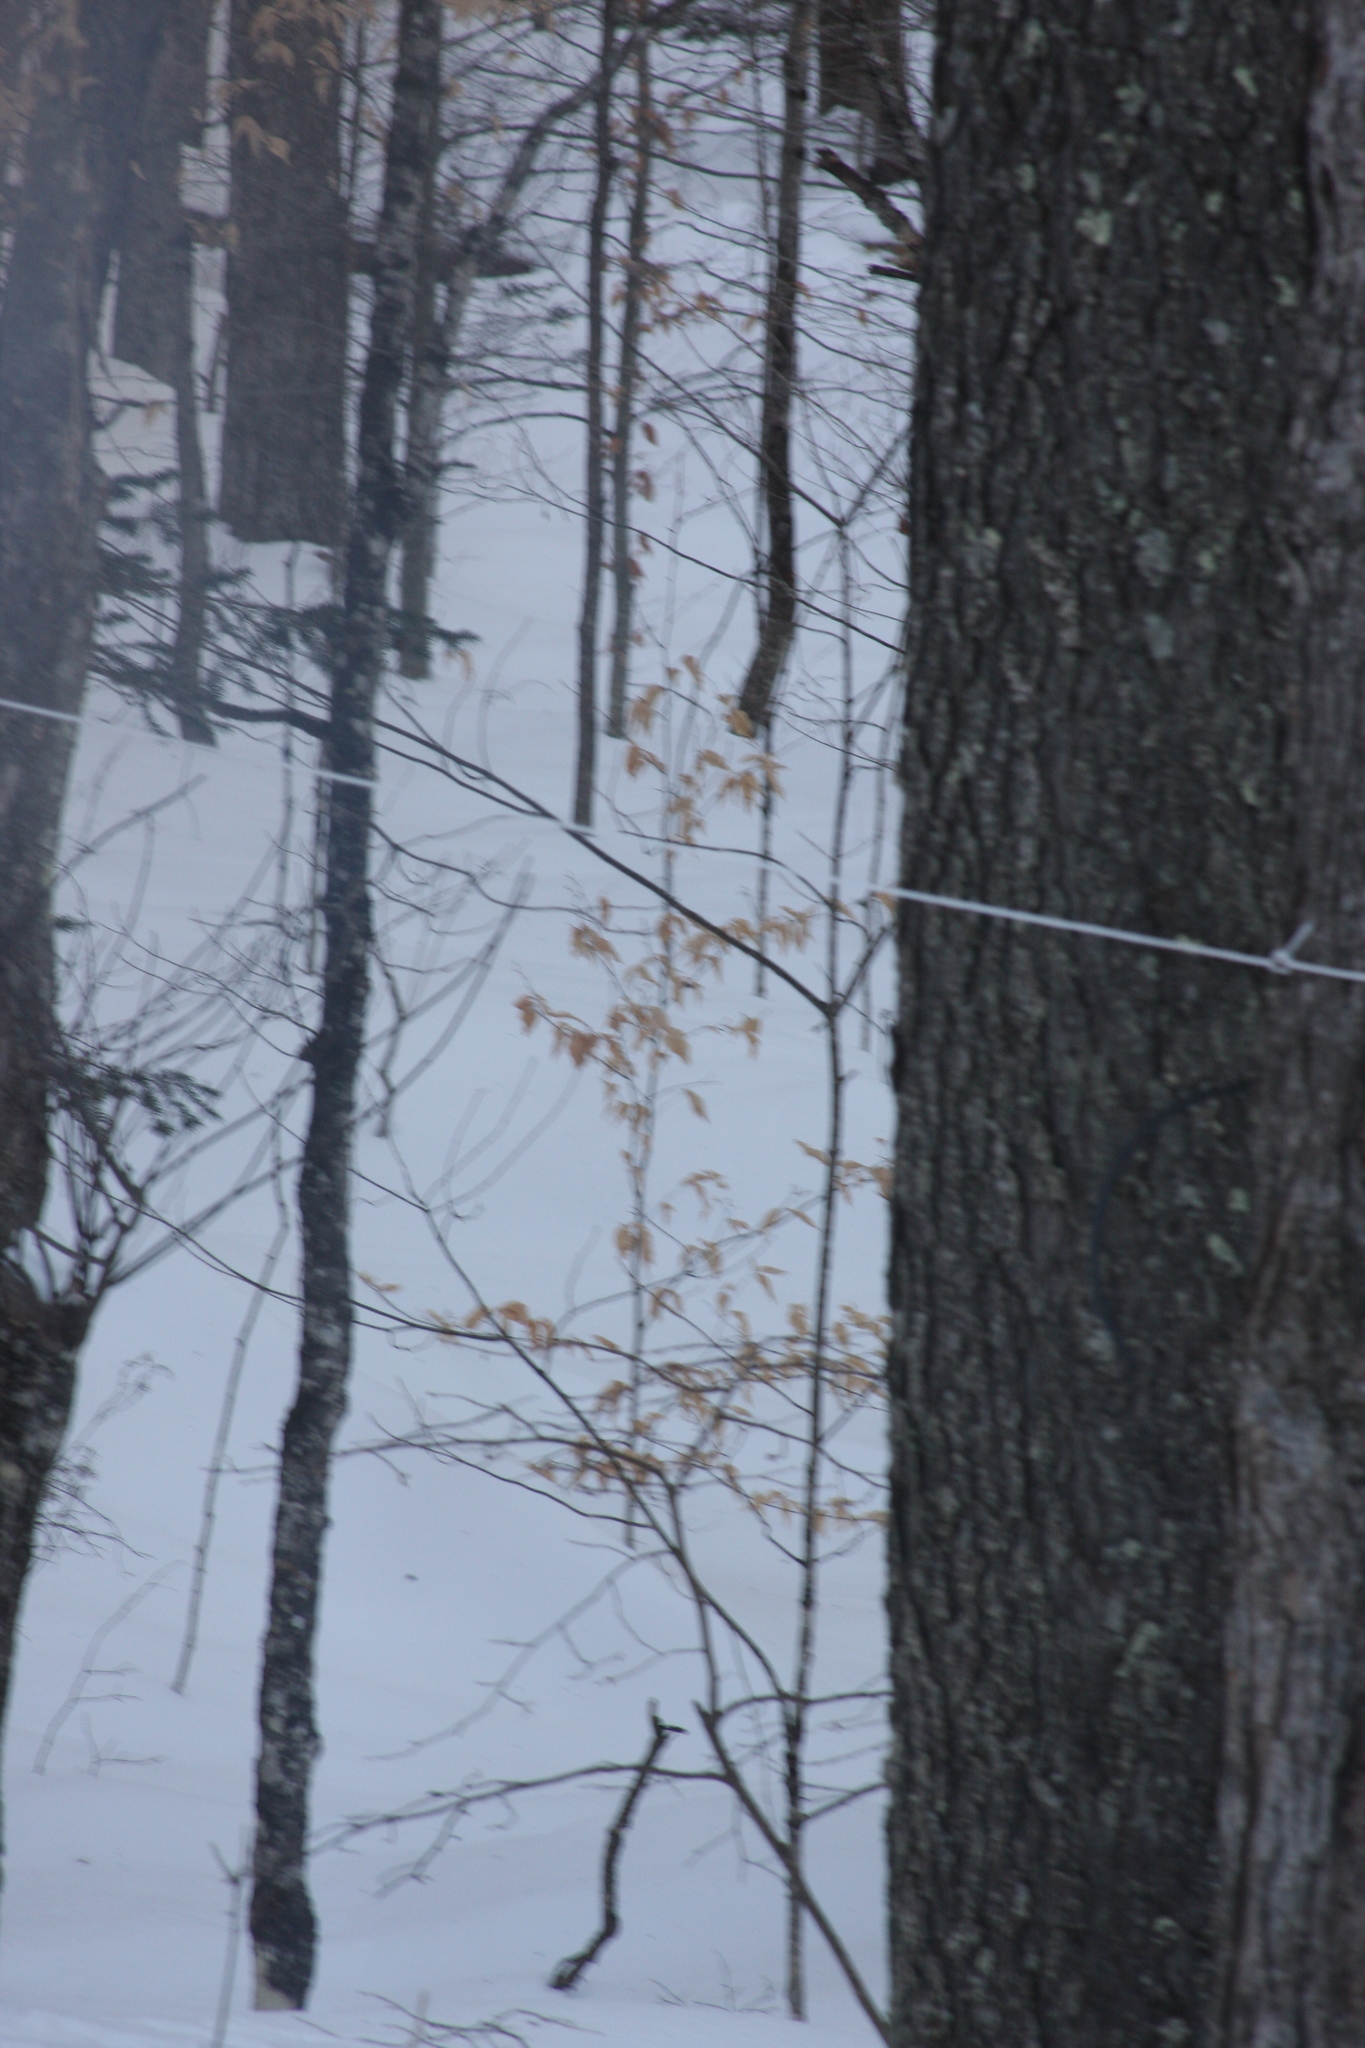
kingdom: Plantae
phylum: Tracheophyta
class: Magnoliopsida
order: Fagales
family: Fagaceae
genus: Fagus
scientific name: Fagus grandifolia
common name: American beech
